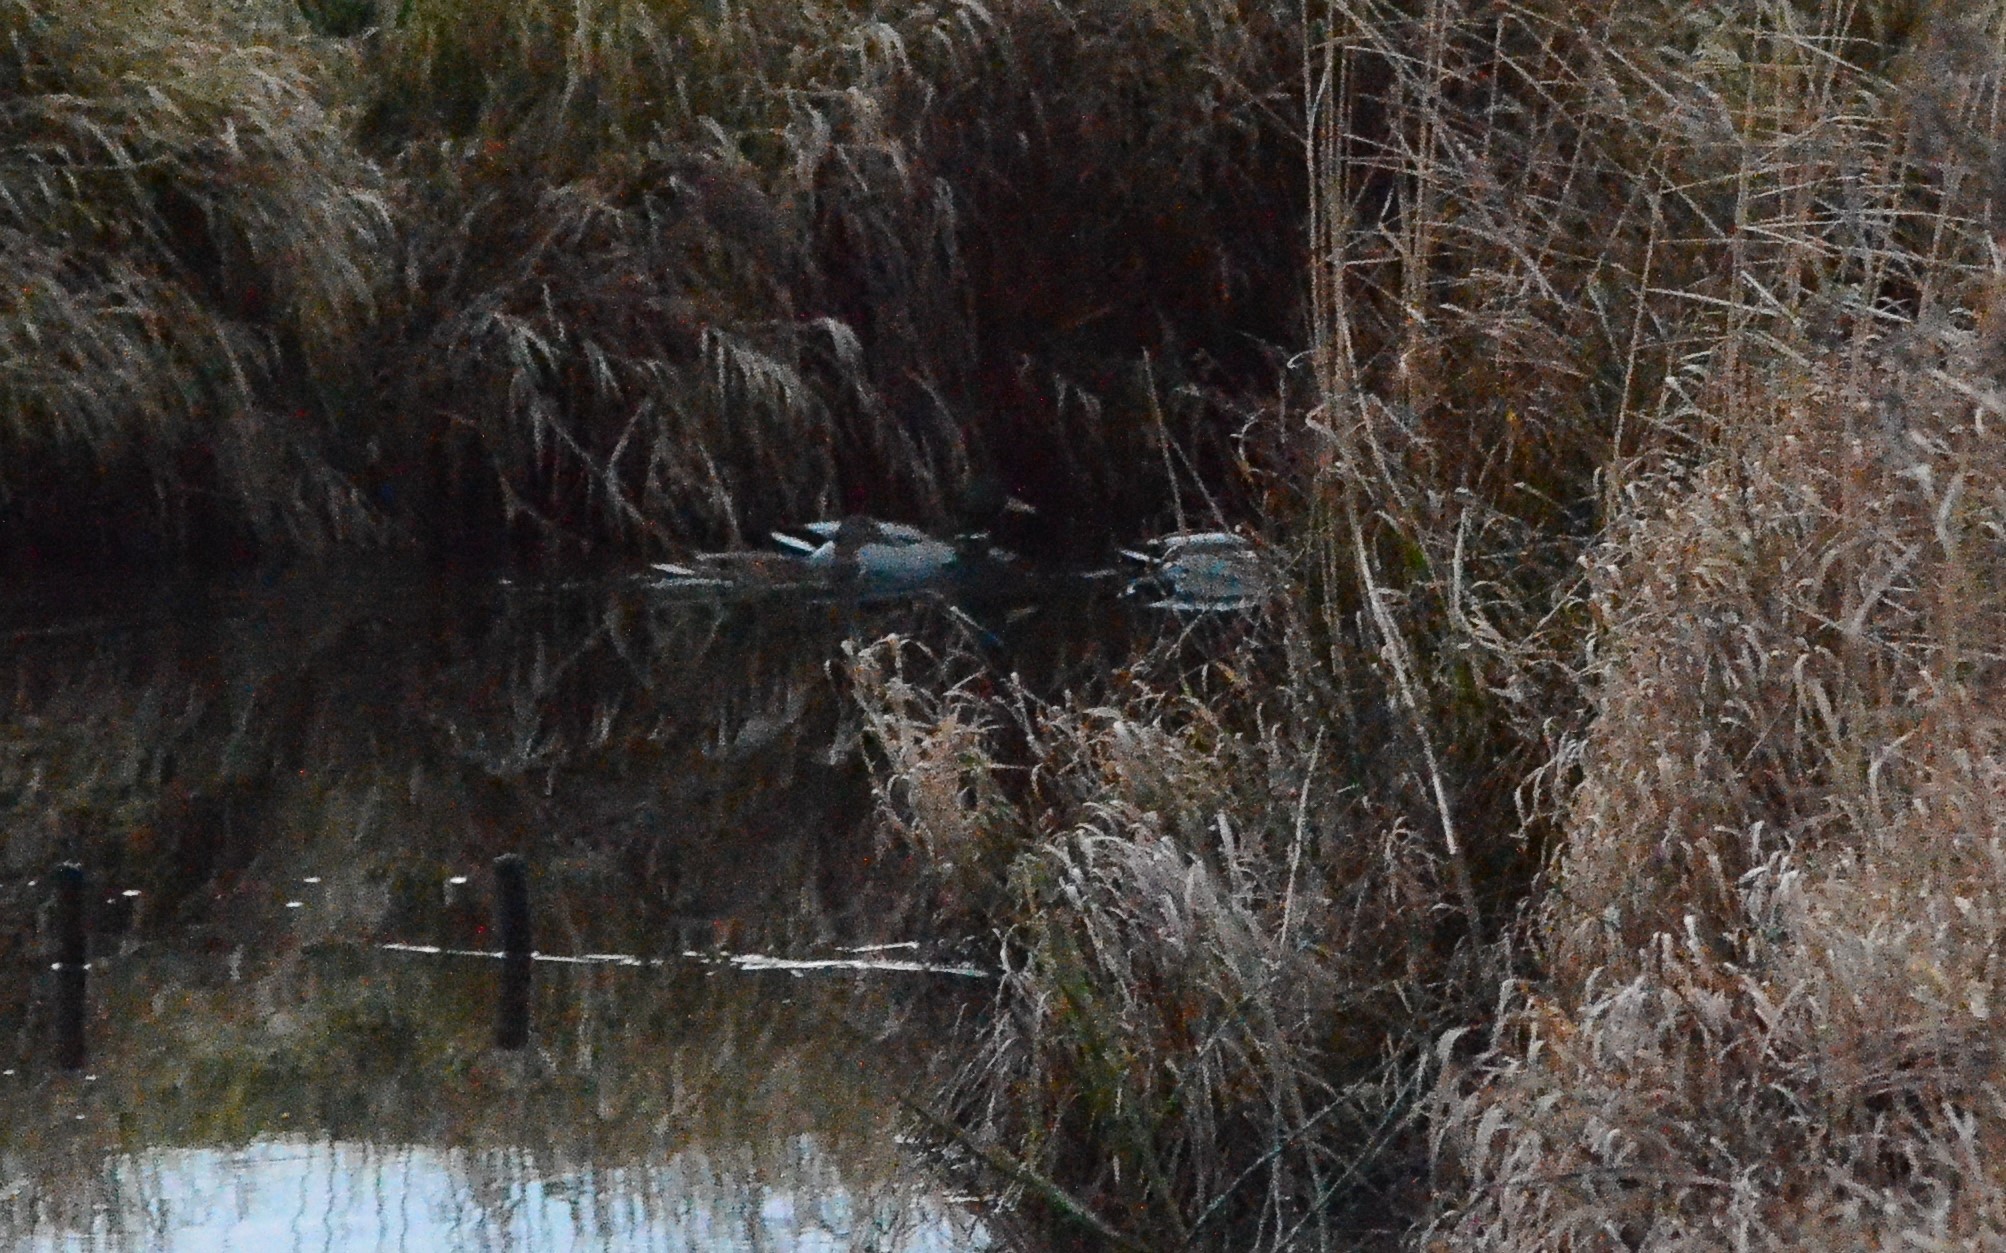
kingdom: Animalia
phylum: Chordata
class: Aves
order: Anseriformes
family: Anatidae
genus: Anas
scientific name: Anas platyrhynchos
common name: Mallard
